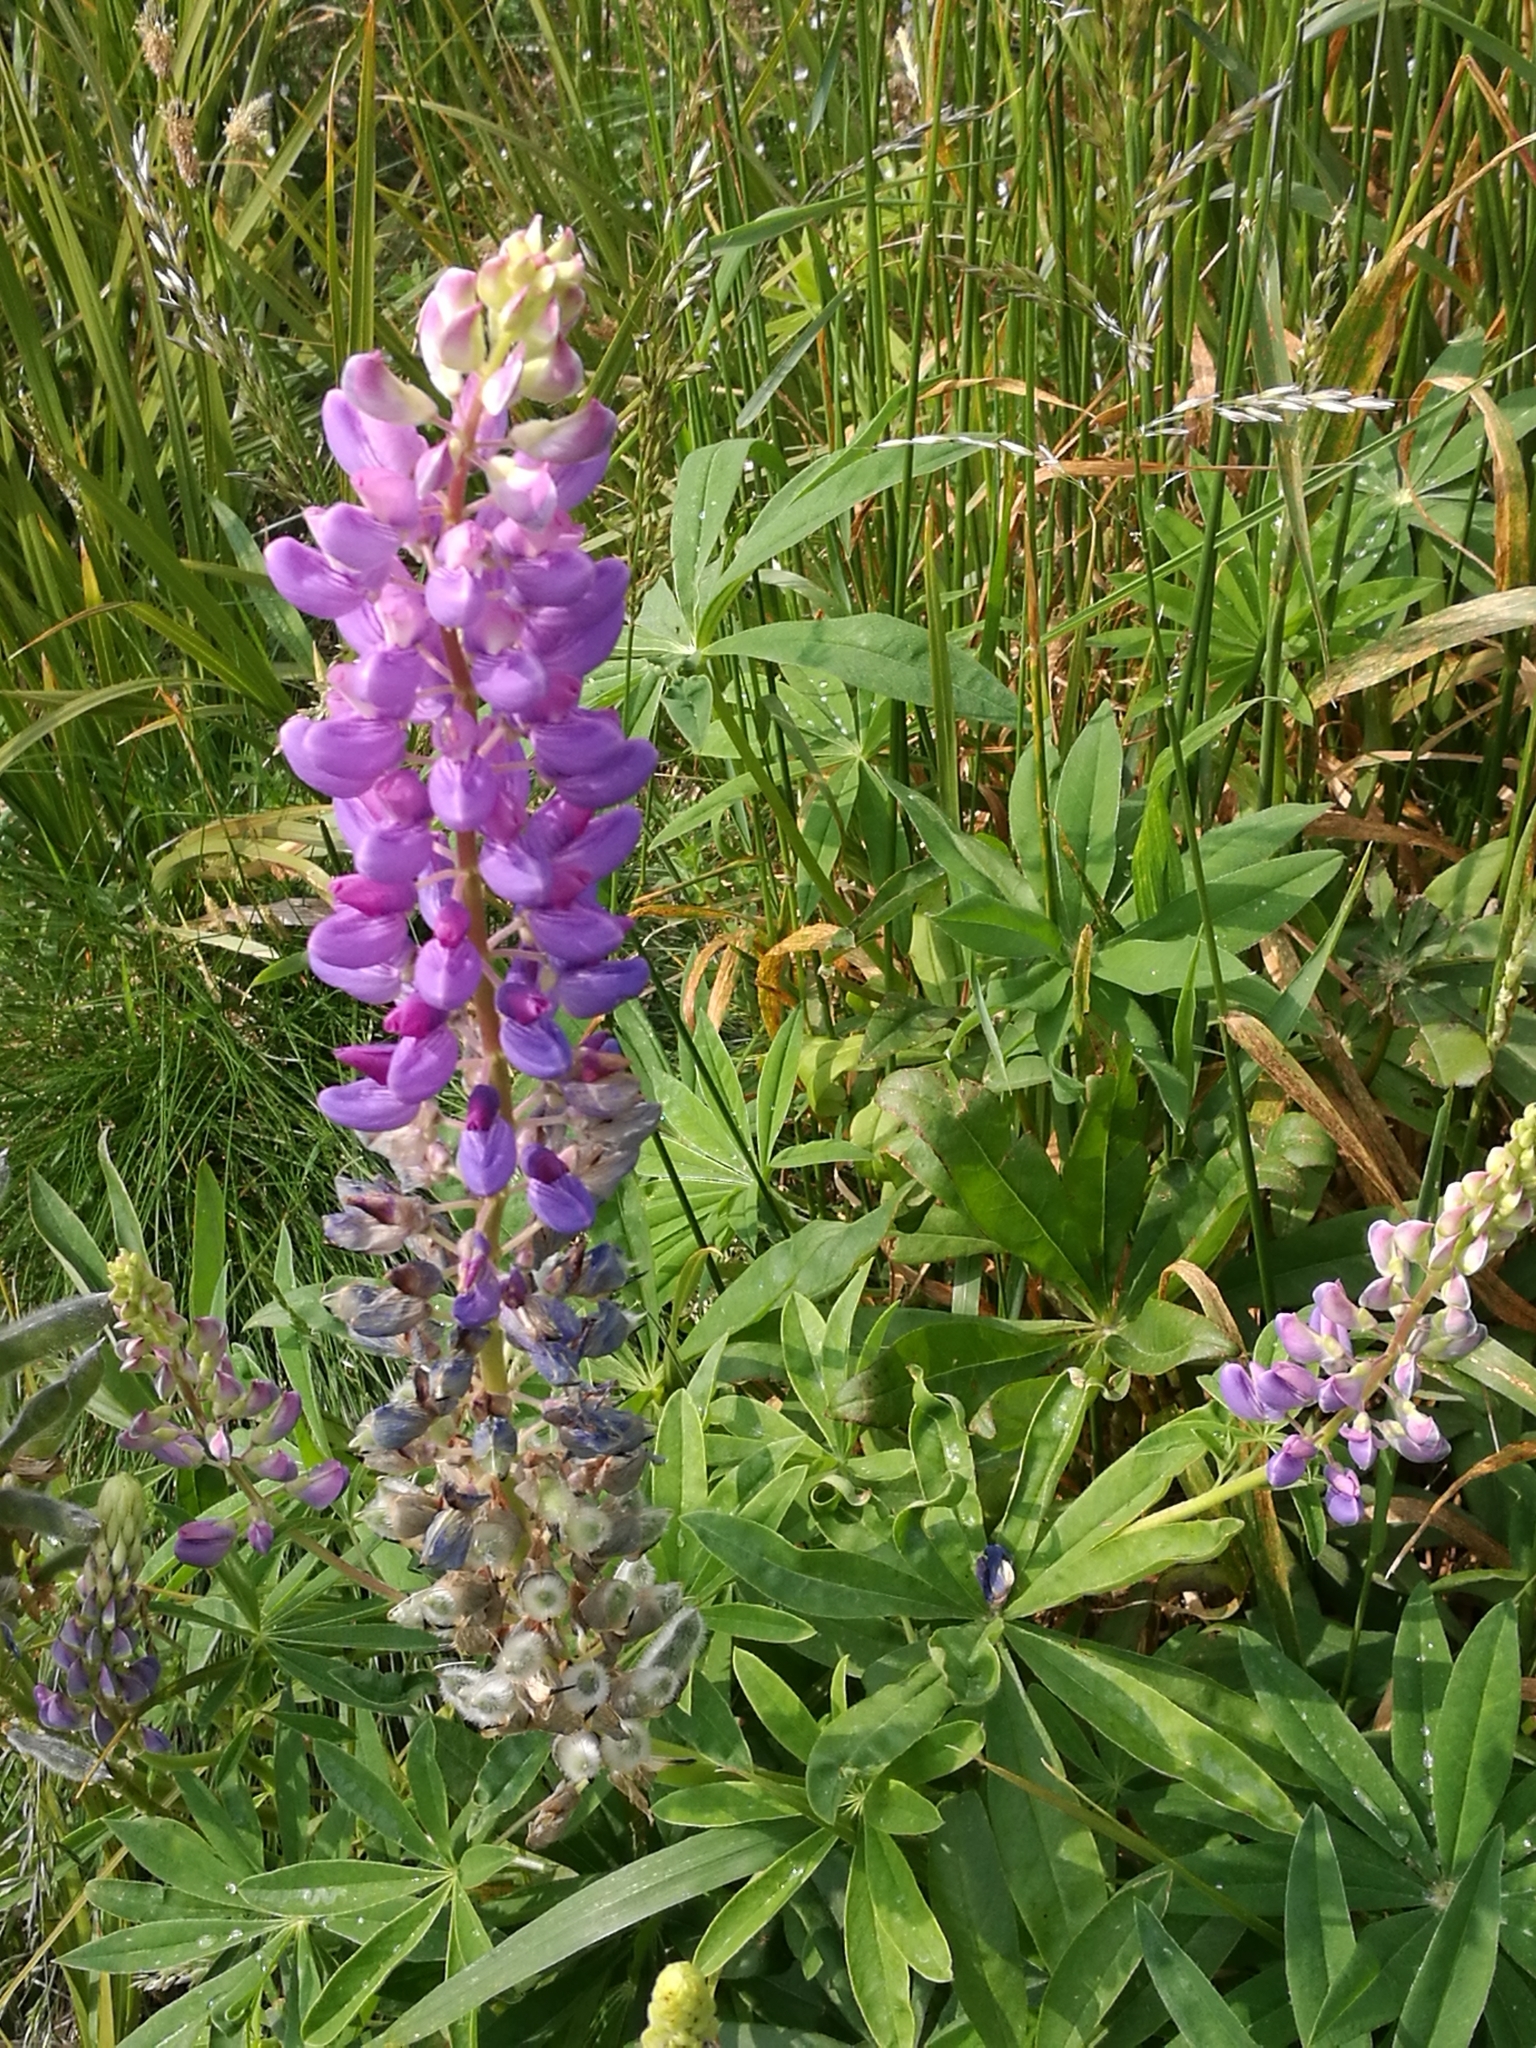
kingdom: Plantae
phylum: Tracheophyta
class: Magnoliopsida
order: Fabales
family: Fabaceae
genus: Lupinus
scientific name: Lupinus polyphyllus
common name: Garden lupin
